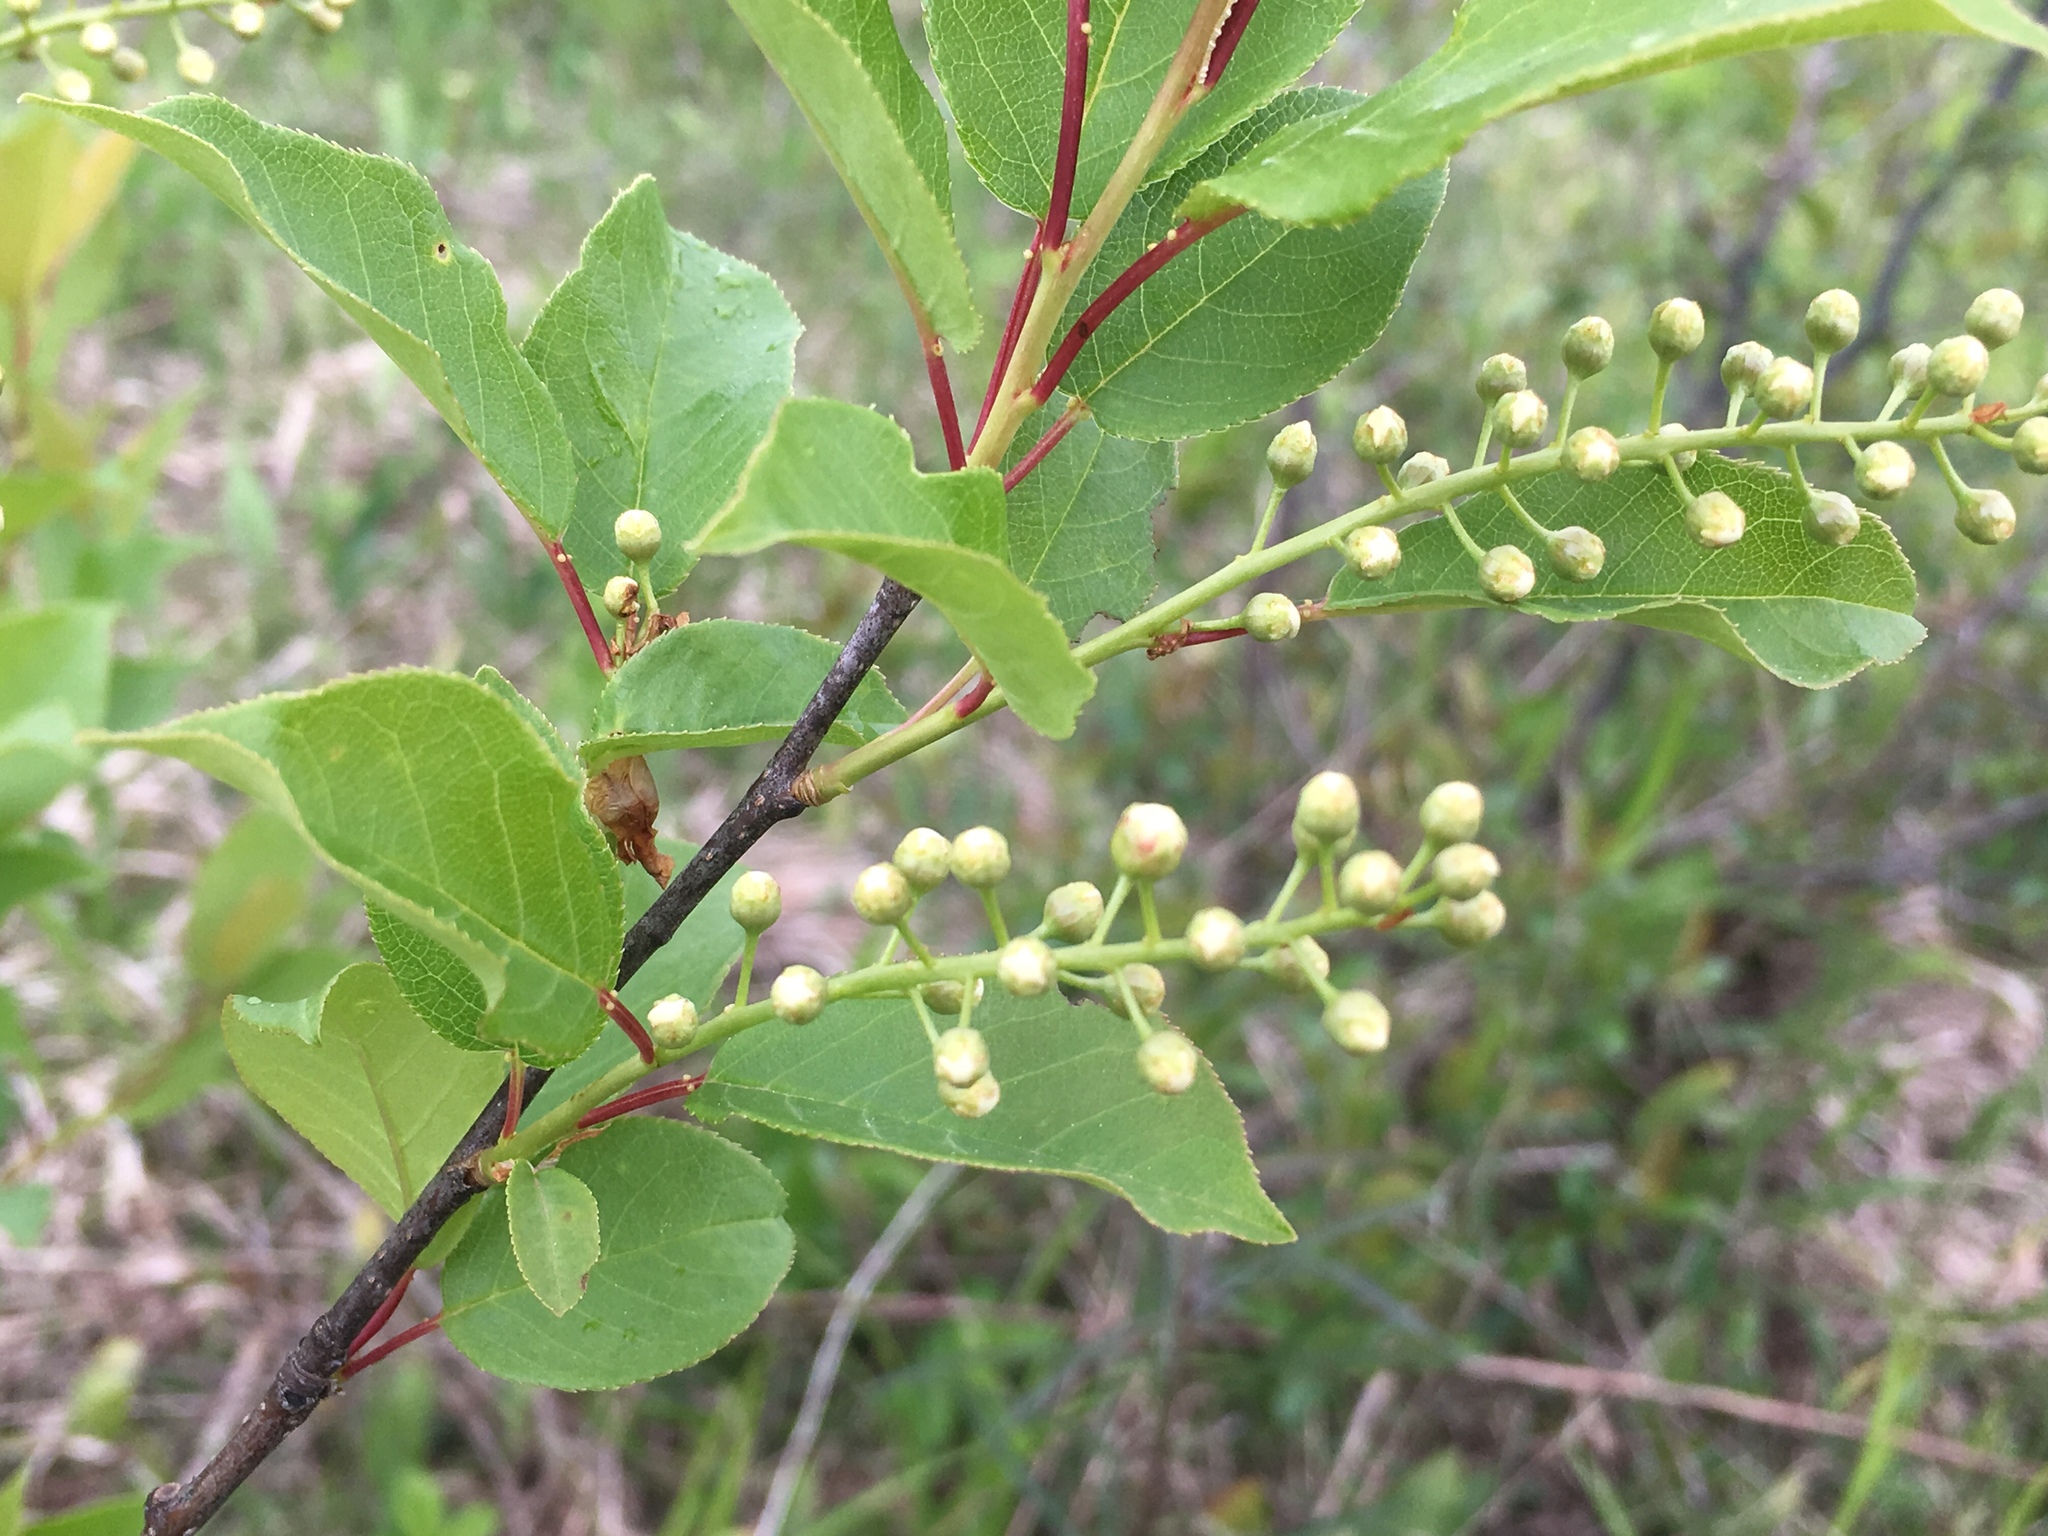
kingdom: Plantae
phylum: Tracheophyta
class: Magnoliopsida
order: Rosales
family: Rosaceae
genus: Prunus
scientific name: Prunus virginiana
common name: Chokecherry
